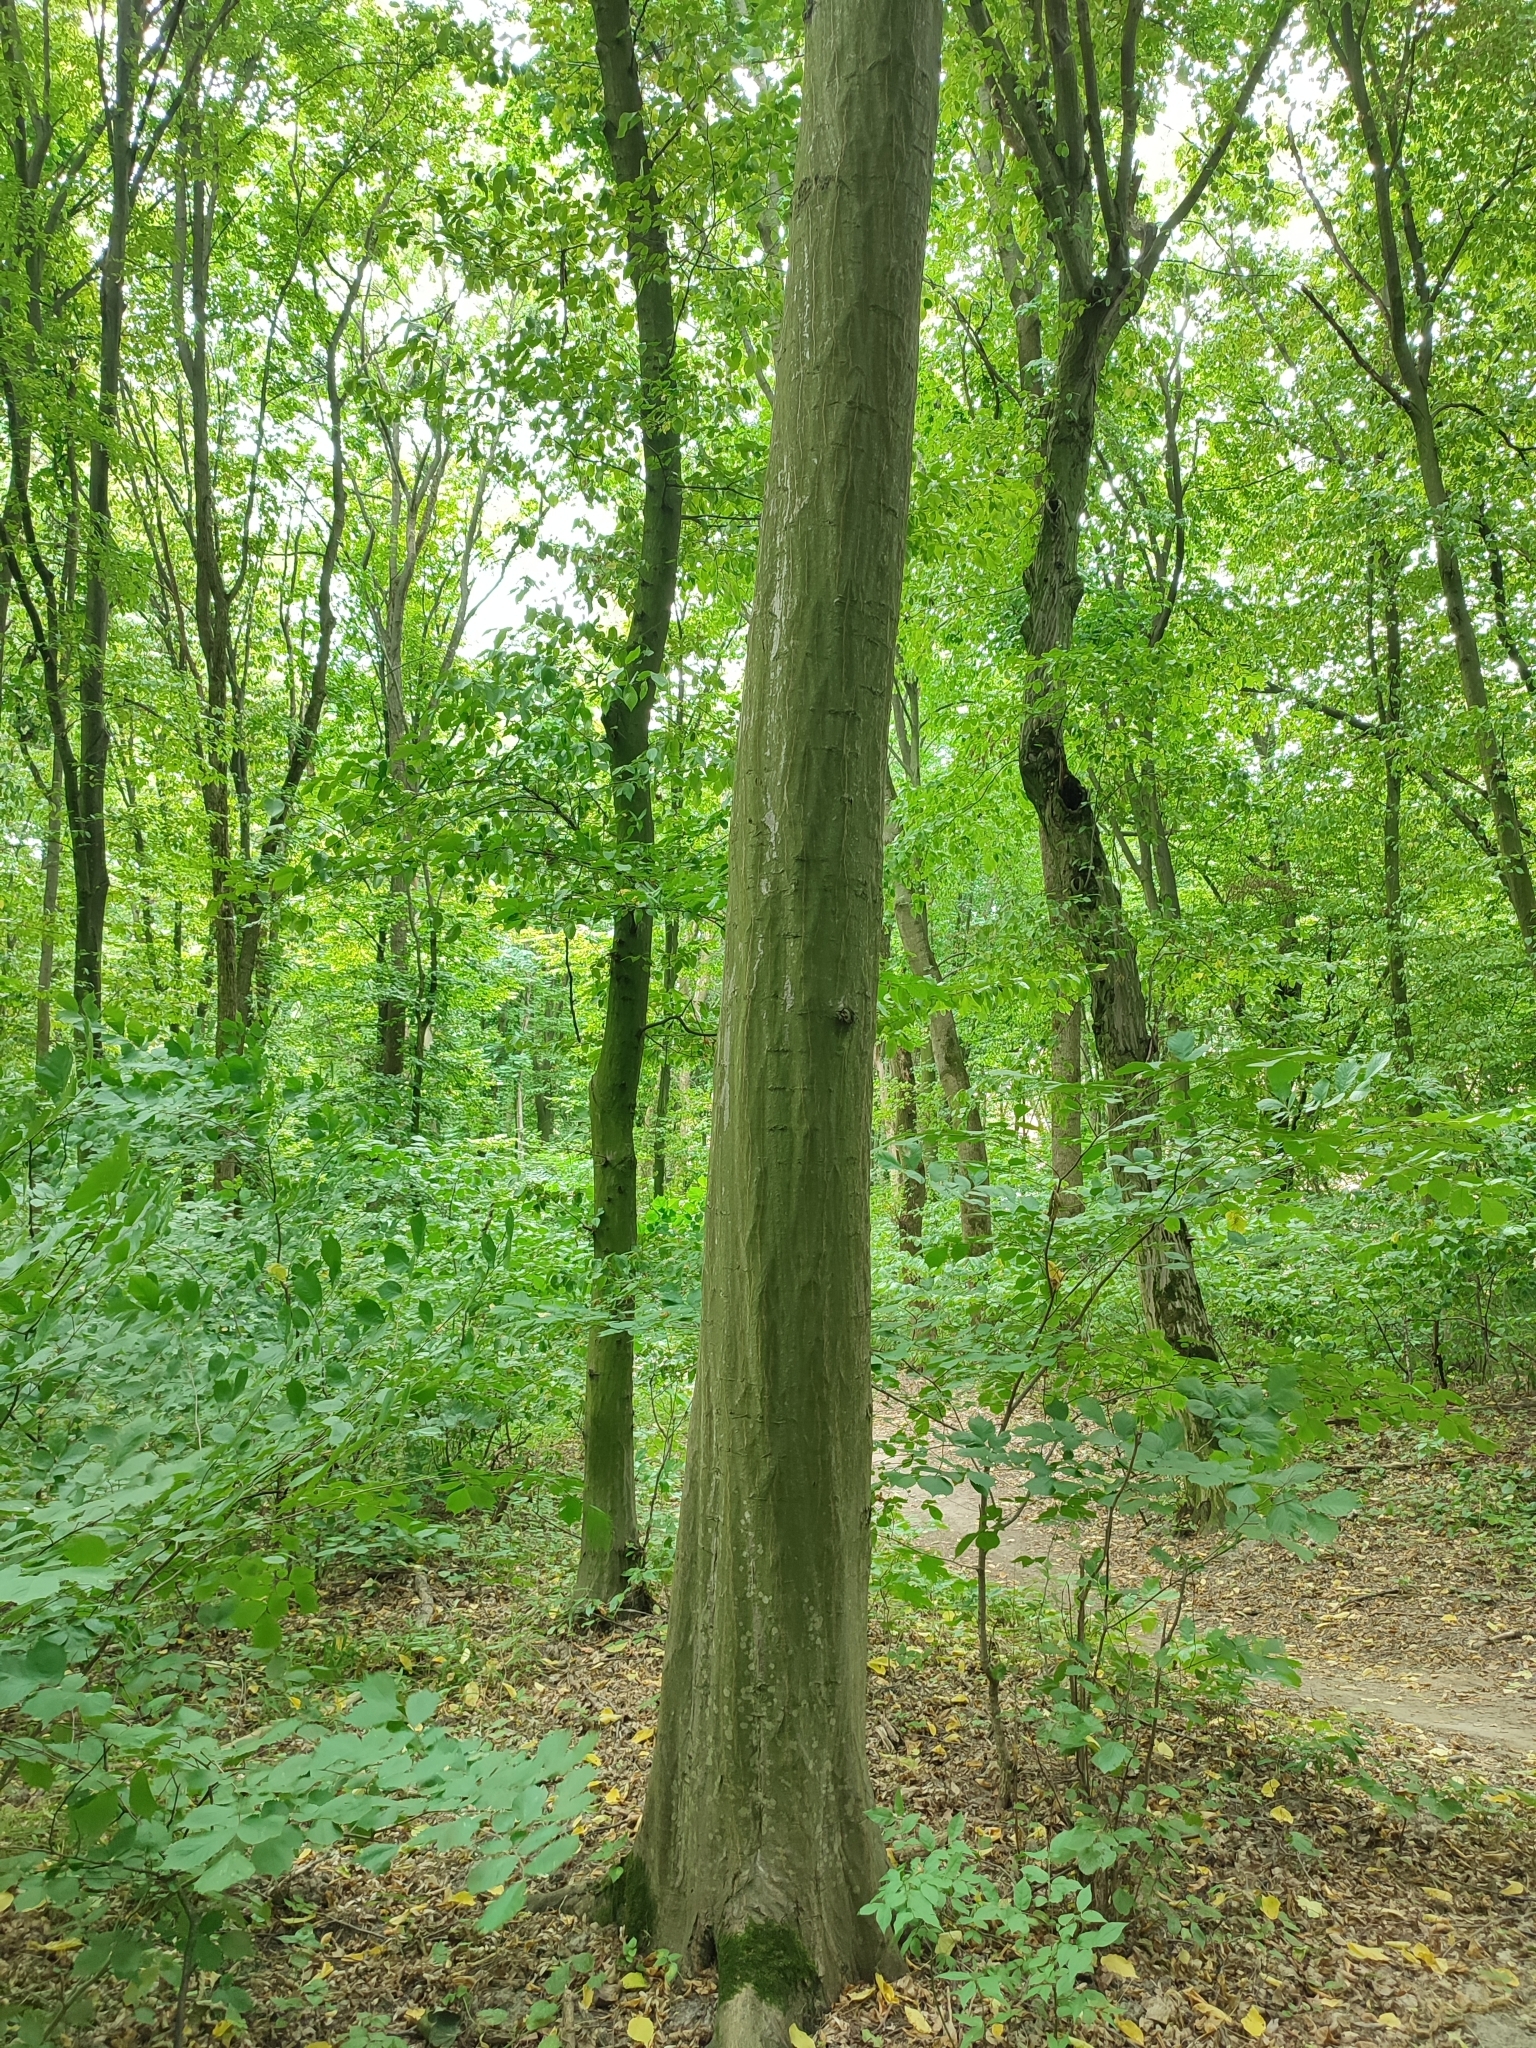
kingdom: Plantae
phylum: Tracheophyta
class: Magnoliopsida
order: Fagales
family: Betulaceae
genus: Carpinus
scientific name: Carpinus betulus
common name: Hornbeam
